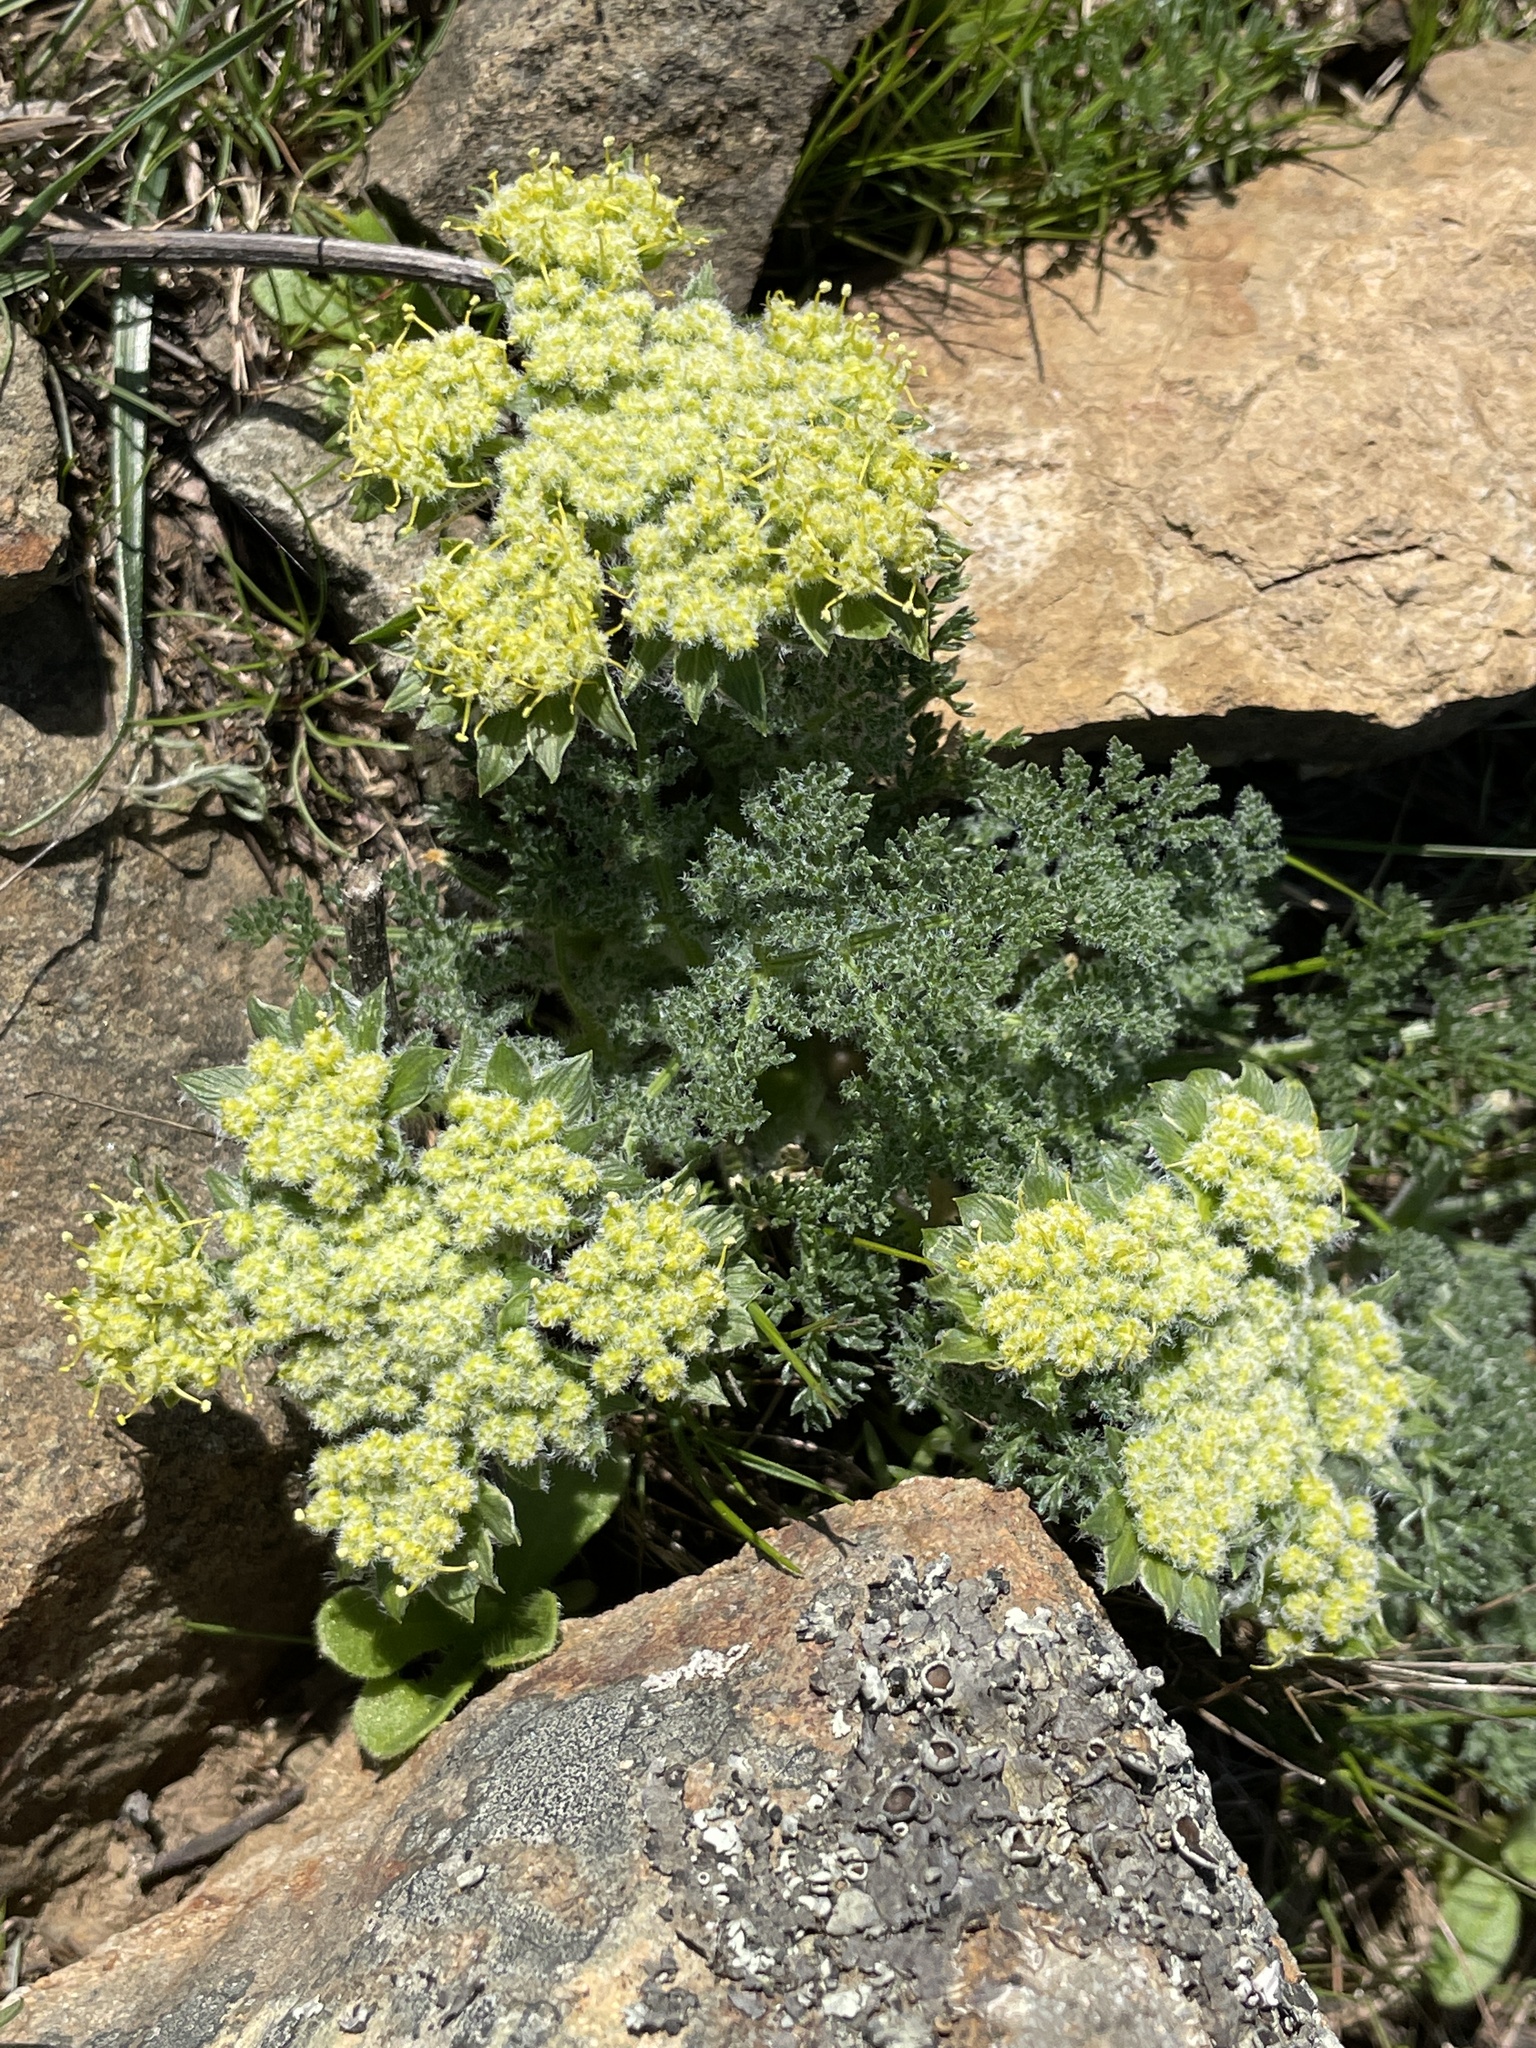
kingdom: Plantae
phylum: Tracheophyta
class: Magnoliopsida
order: Apiales
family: Apiaceae
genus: Lomatium
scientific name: Lomatium dasycarpum
